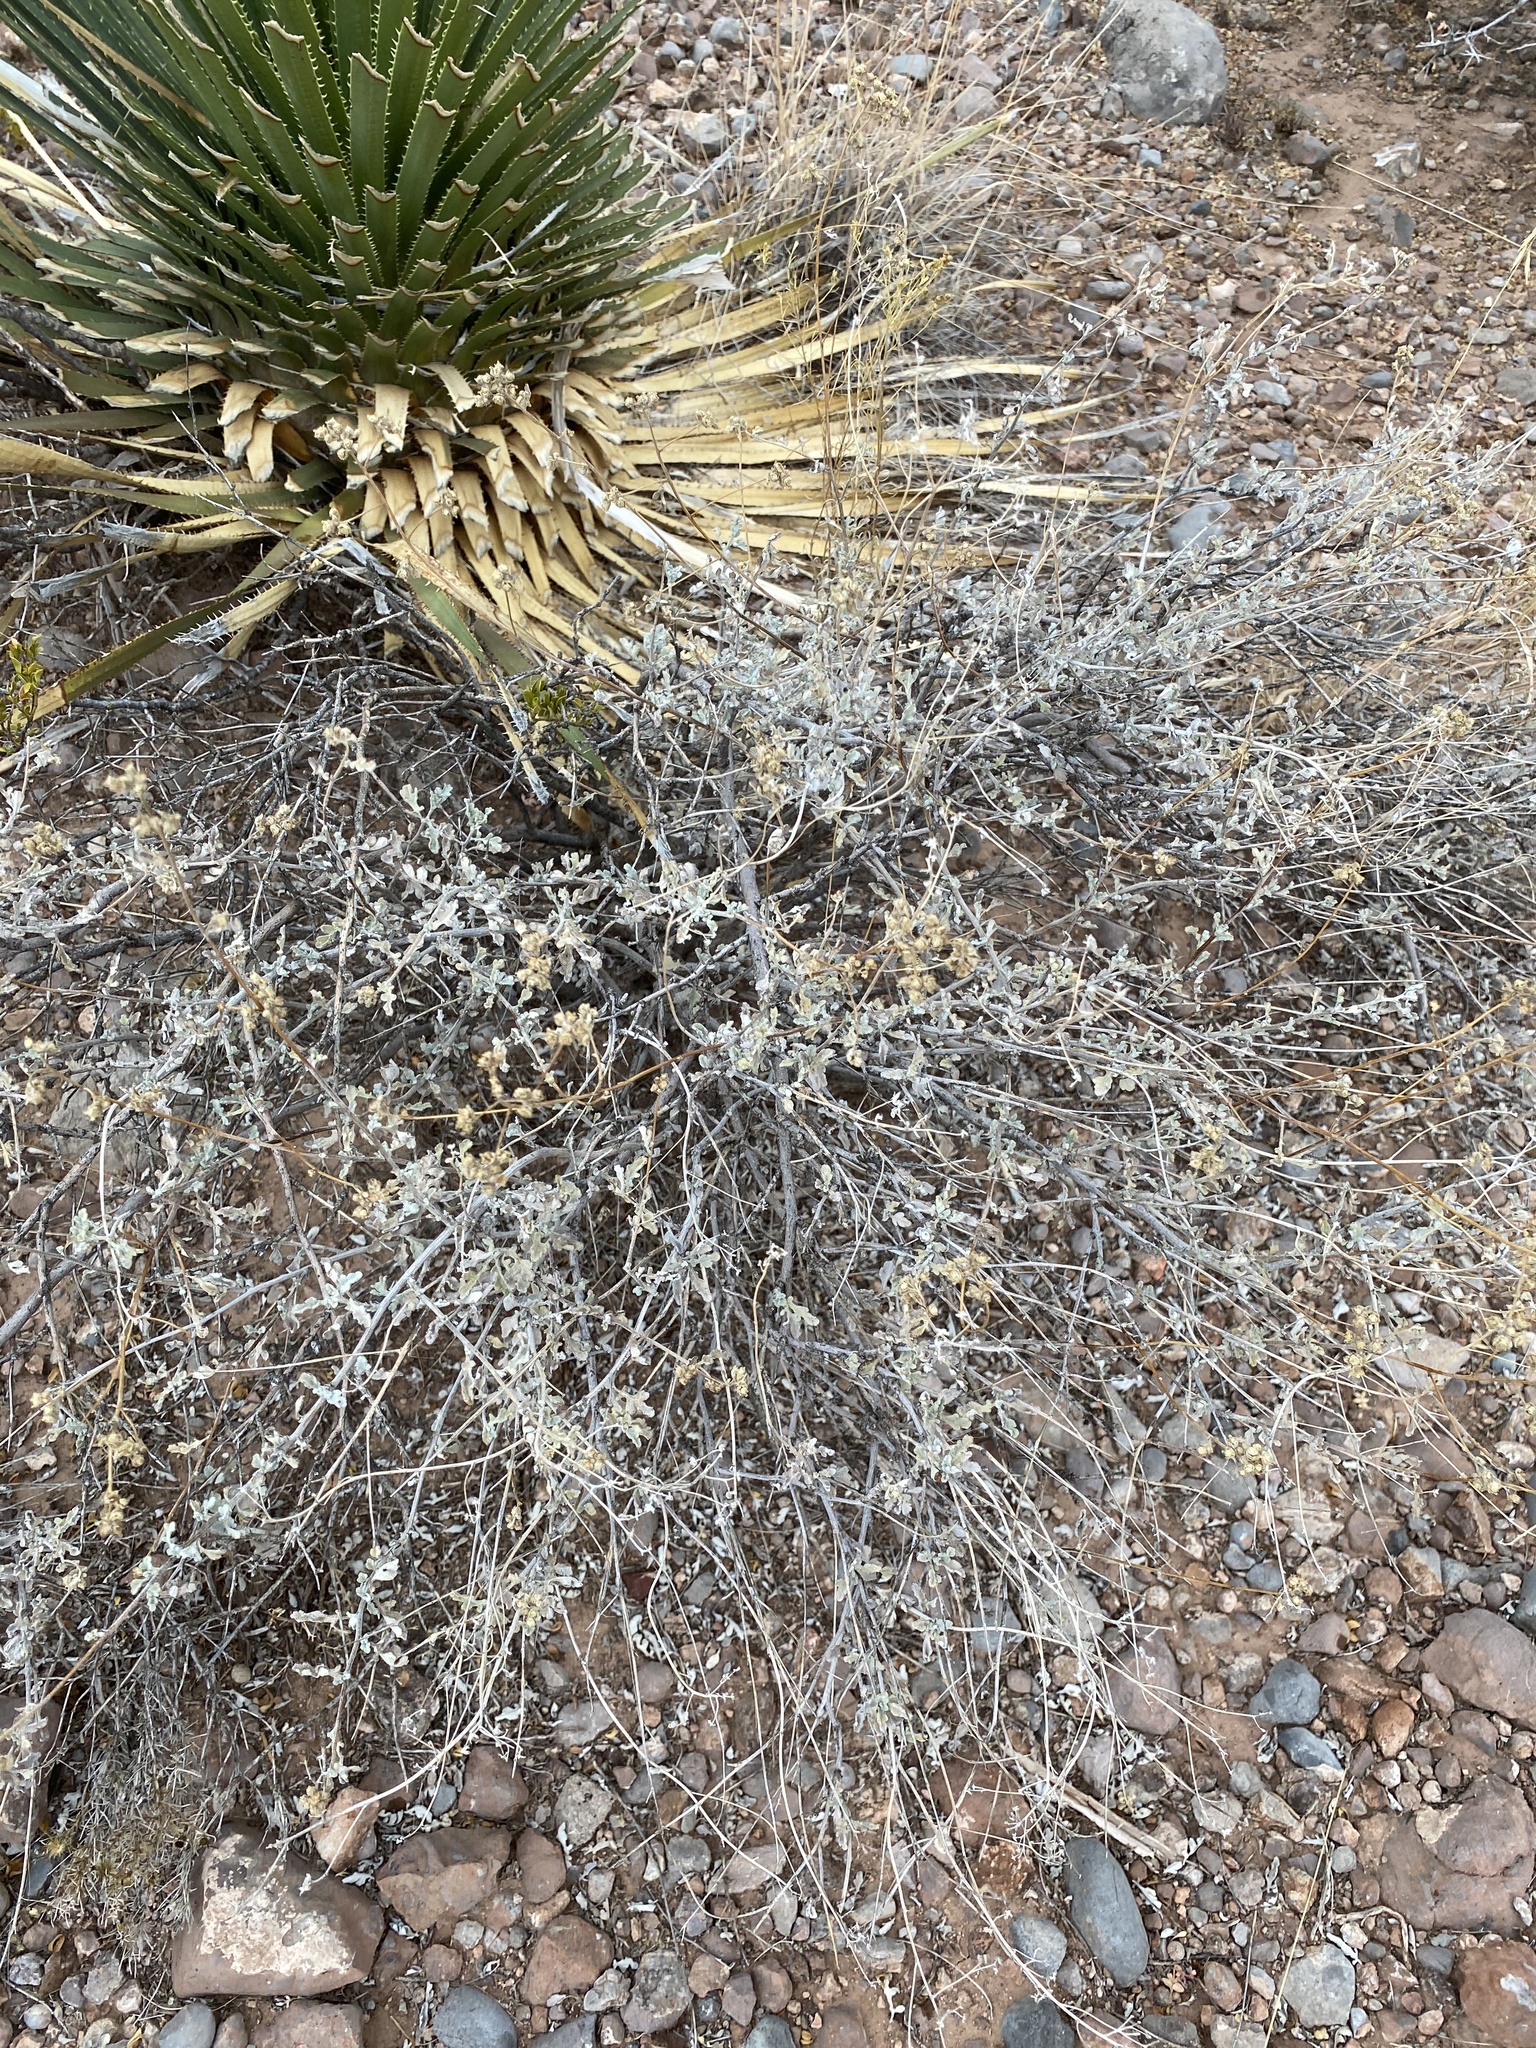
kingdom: Plantae
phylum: Tracheophyta
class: Magnoliopsida
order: Asterales
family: Asteraceae
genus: Parthenium
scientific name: Parthenium incanum
